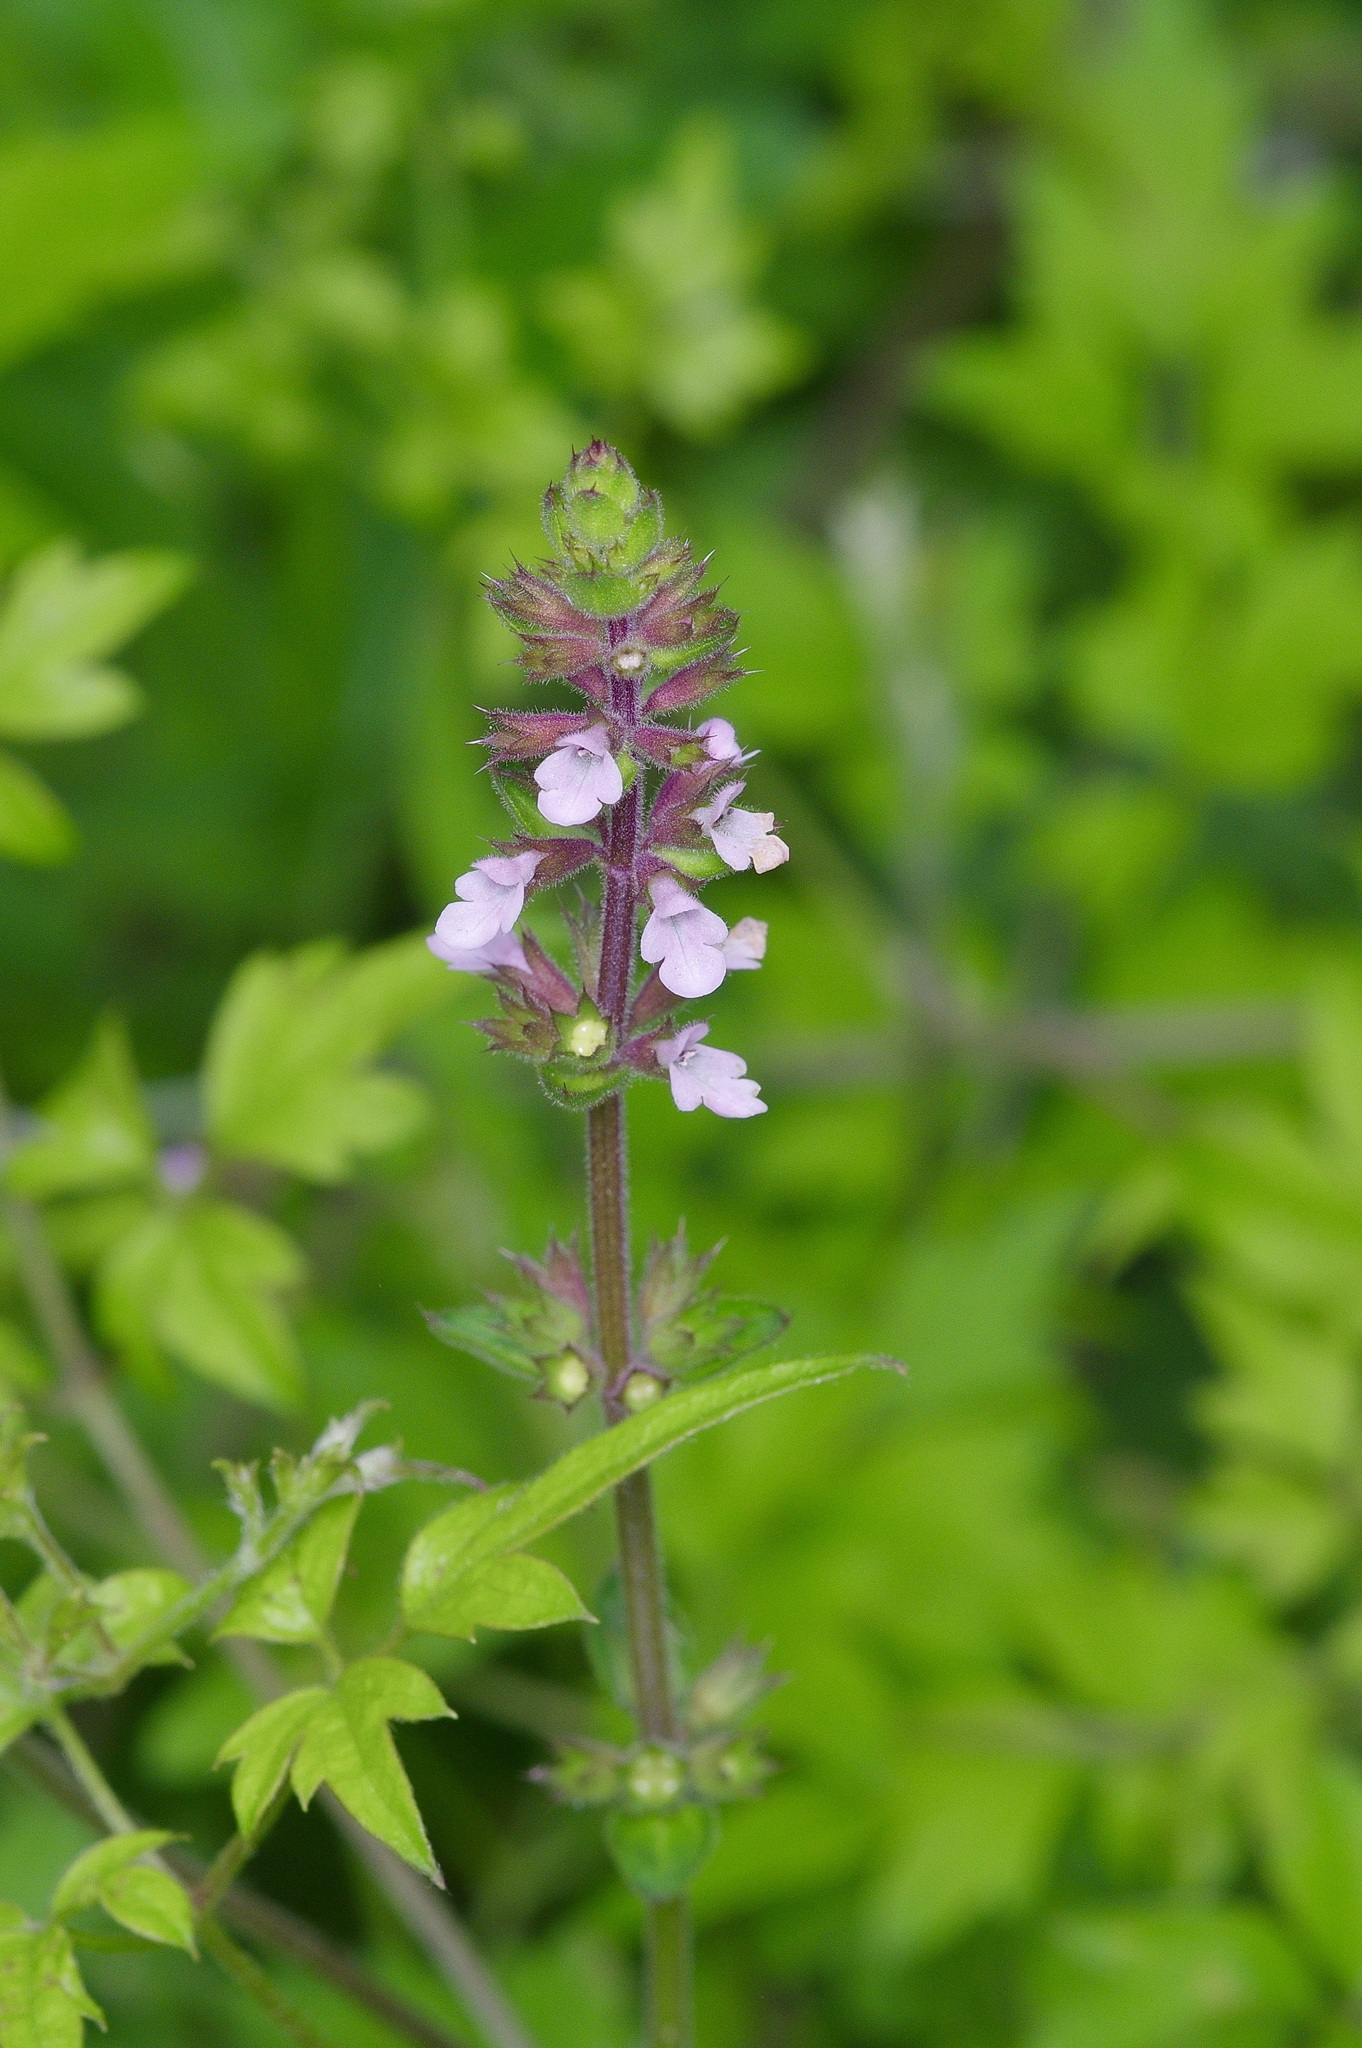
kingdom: Plantae
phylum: Tracheophyta
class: Magnoliopsida
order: Lamiales
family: Lamiaceae
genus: Stachys
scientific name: Stachys
